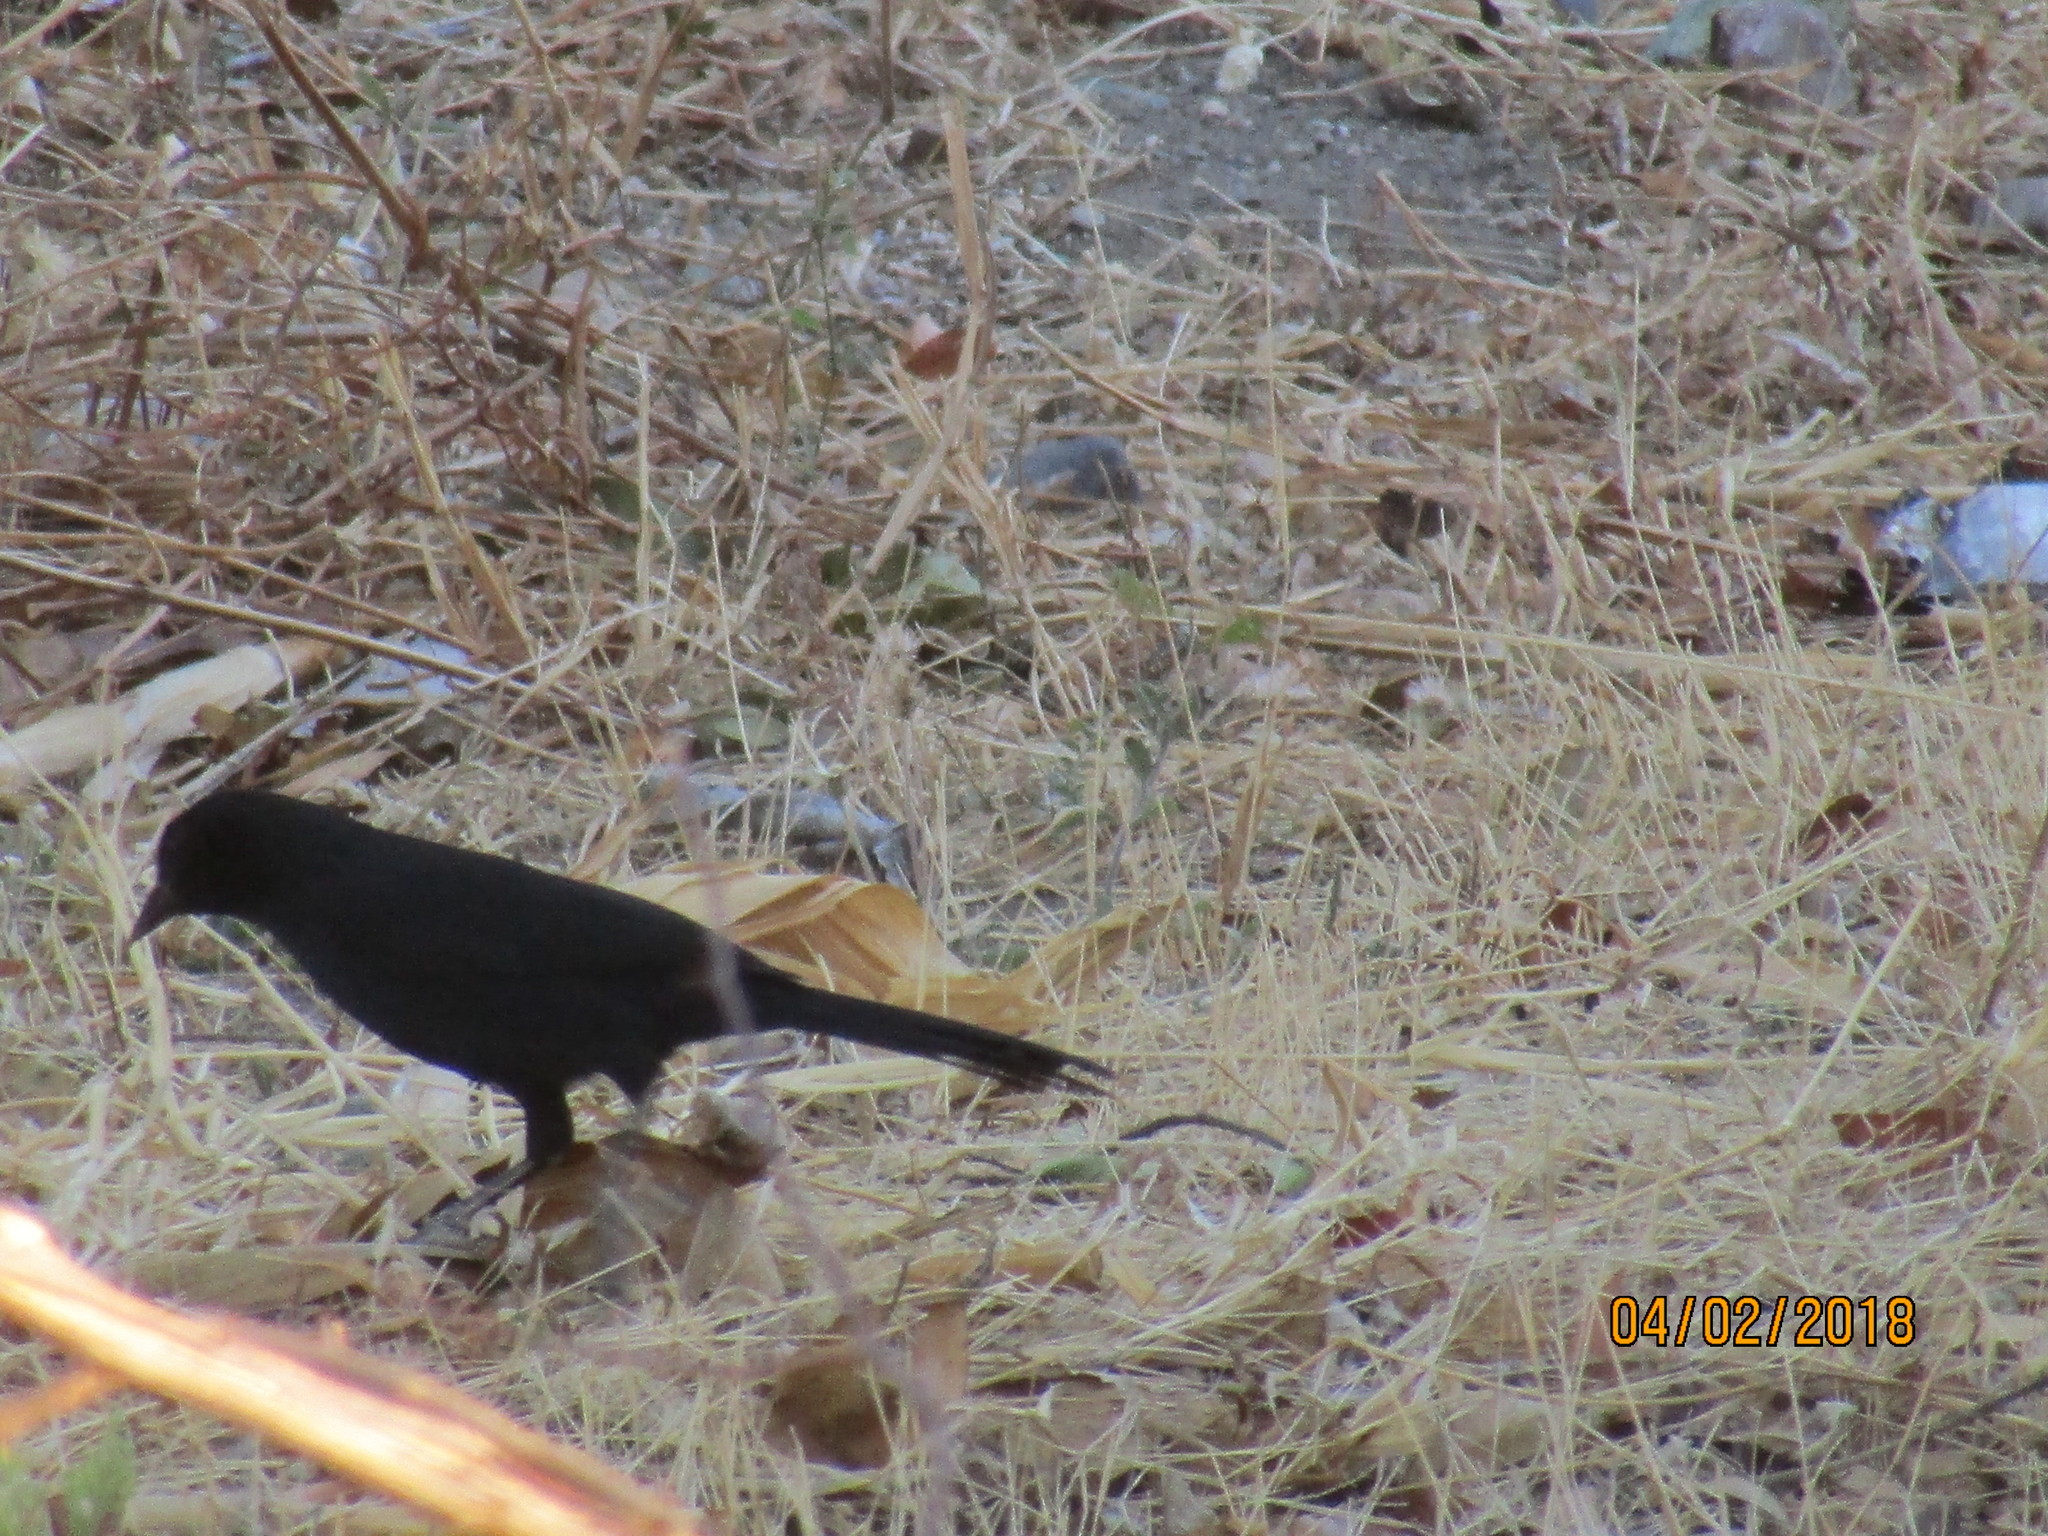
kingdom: Animalia
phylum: Chordata
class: Aves
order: Passeriformes
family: Icteridae
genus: Dives
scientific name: Dives dives
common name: Melodious blackbird
